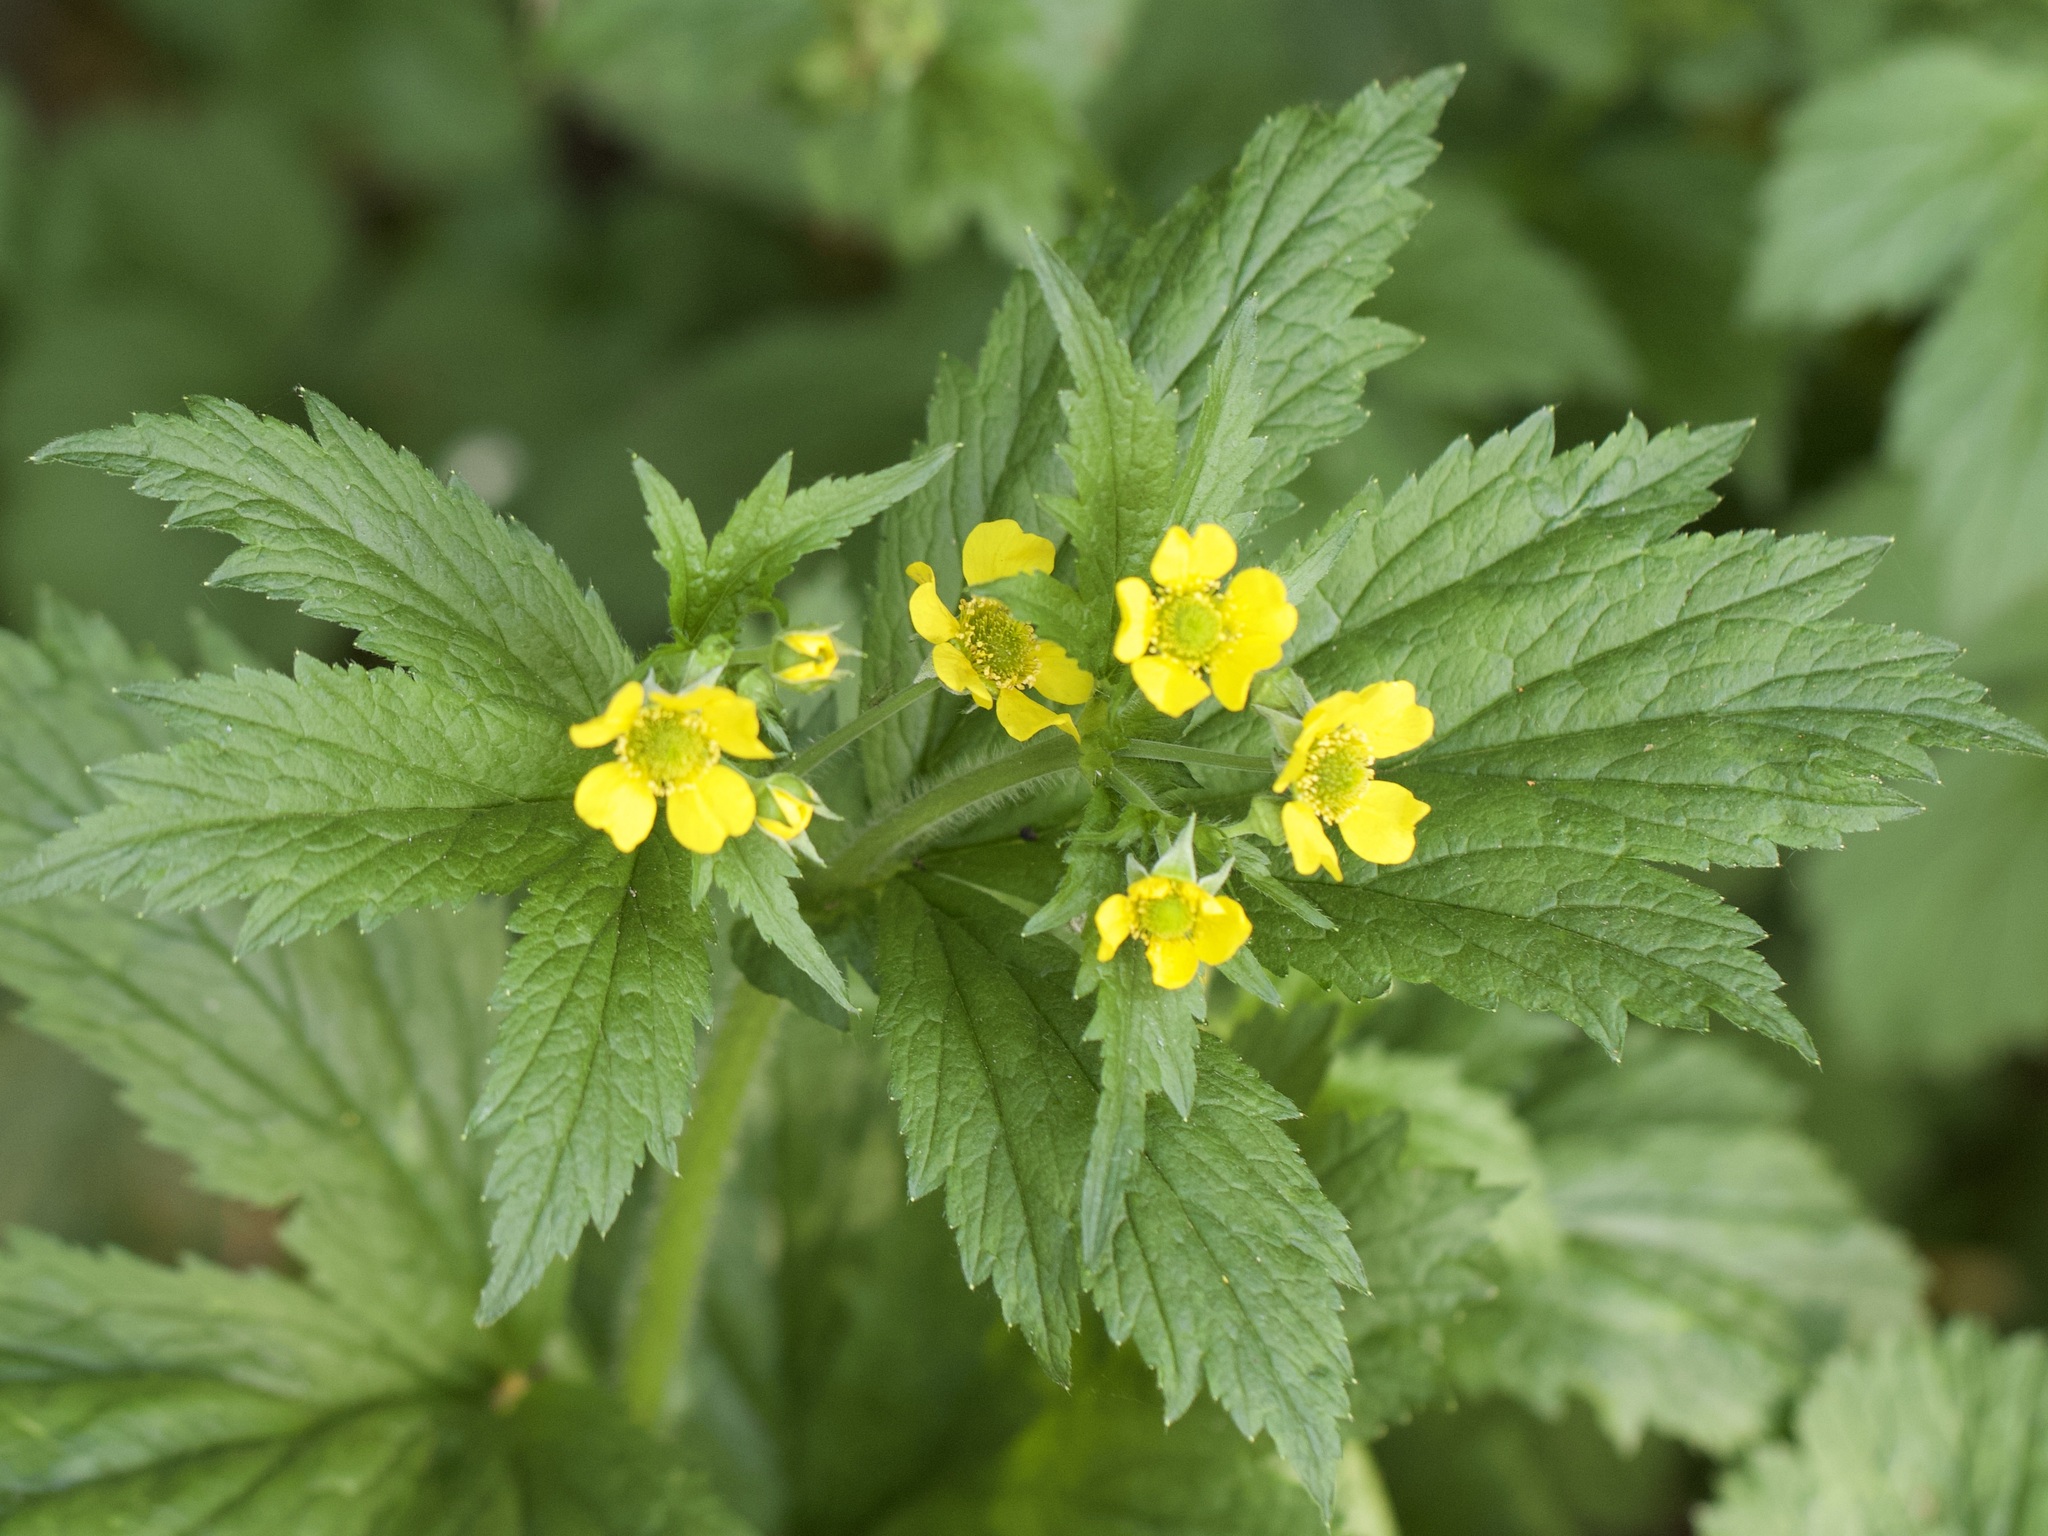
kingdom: Plantae
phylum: Tracheophyta
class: Magnoliopsida
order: Rosales
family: Rosaceae
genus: Geum
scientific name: Geum urbanum
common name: Wood avens
